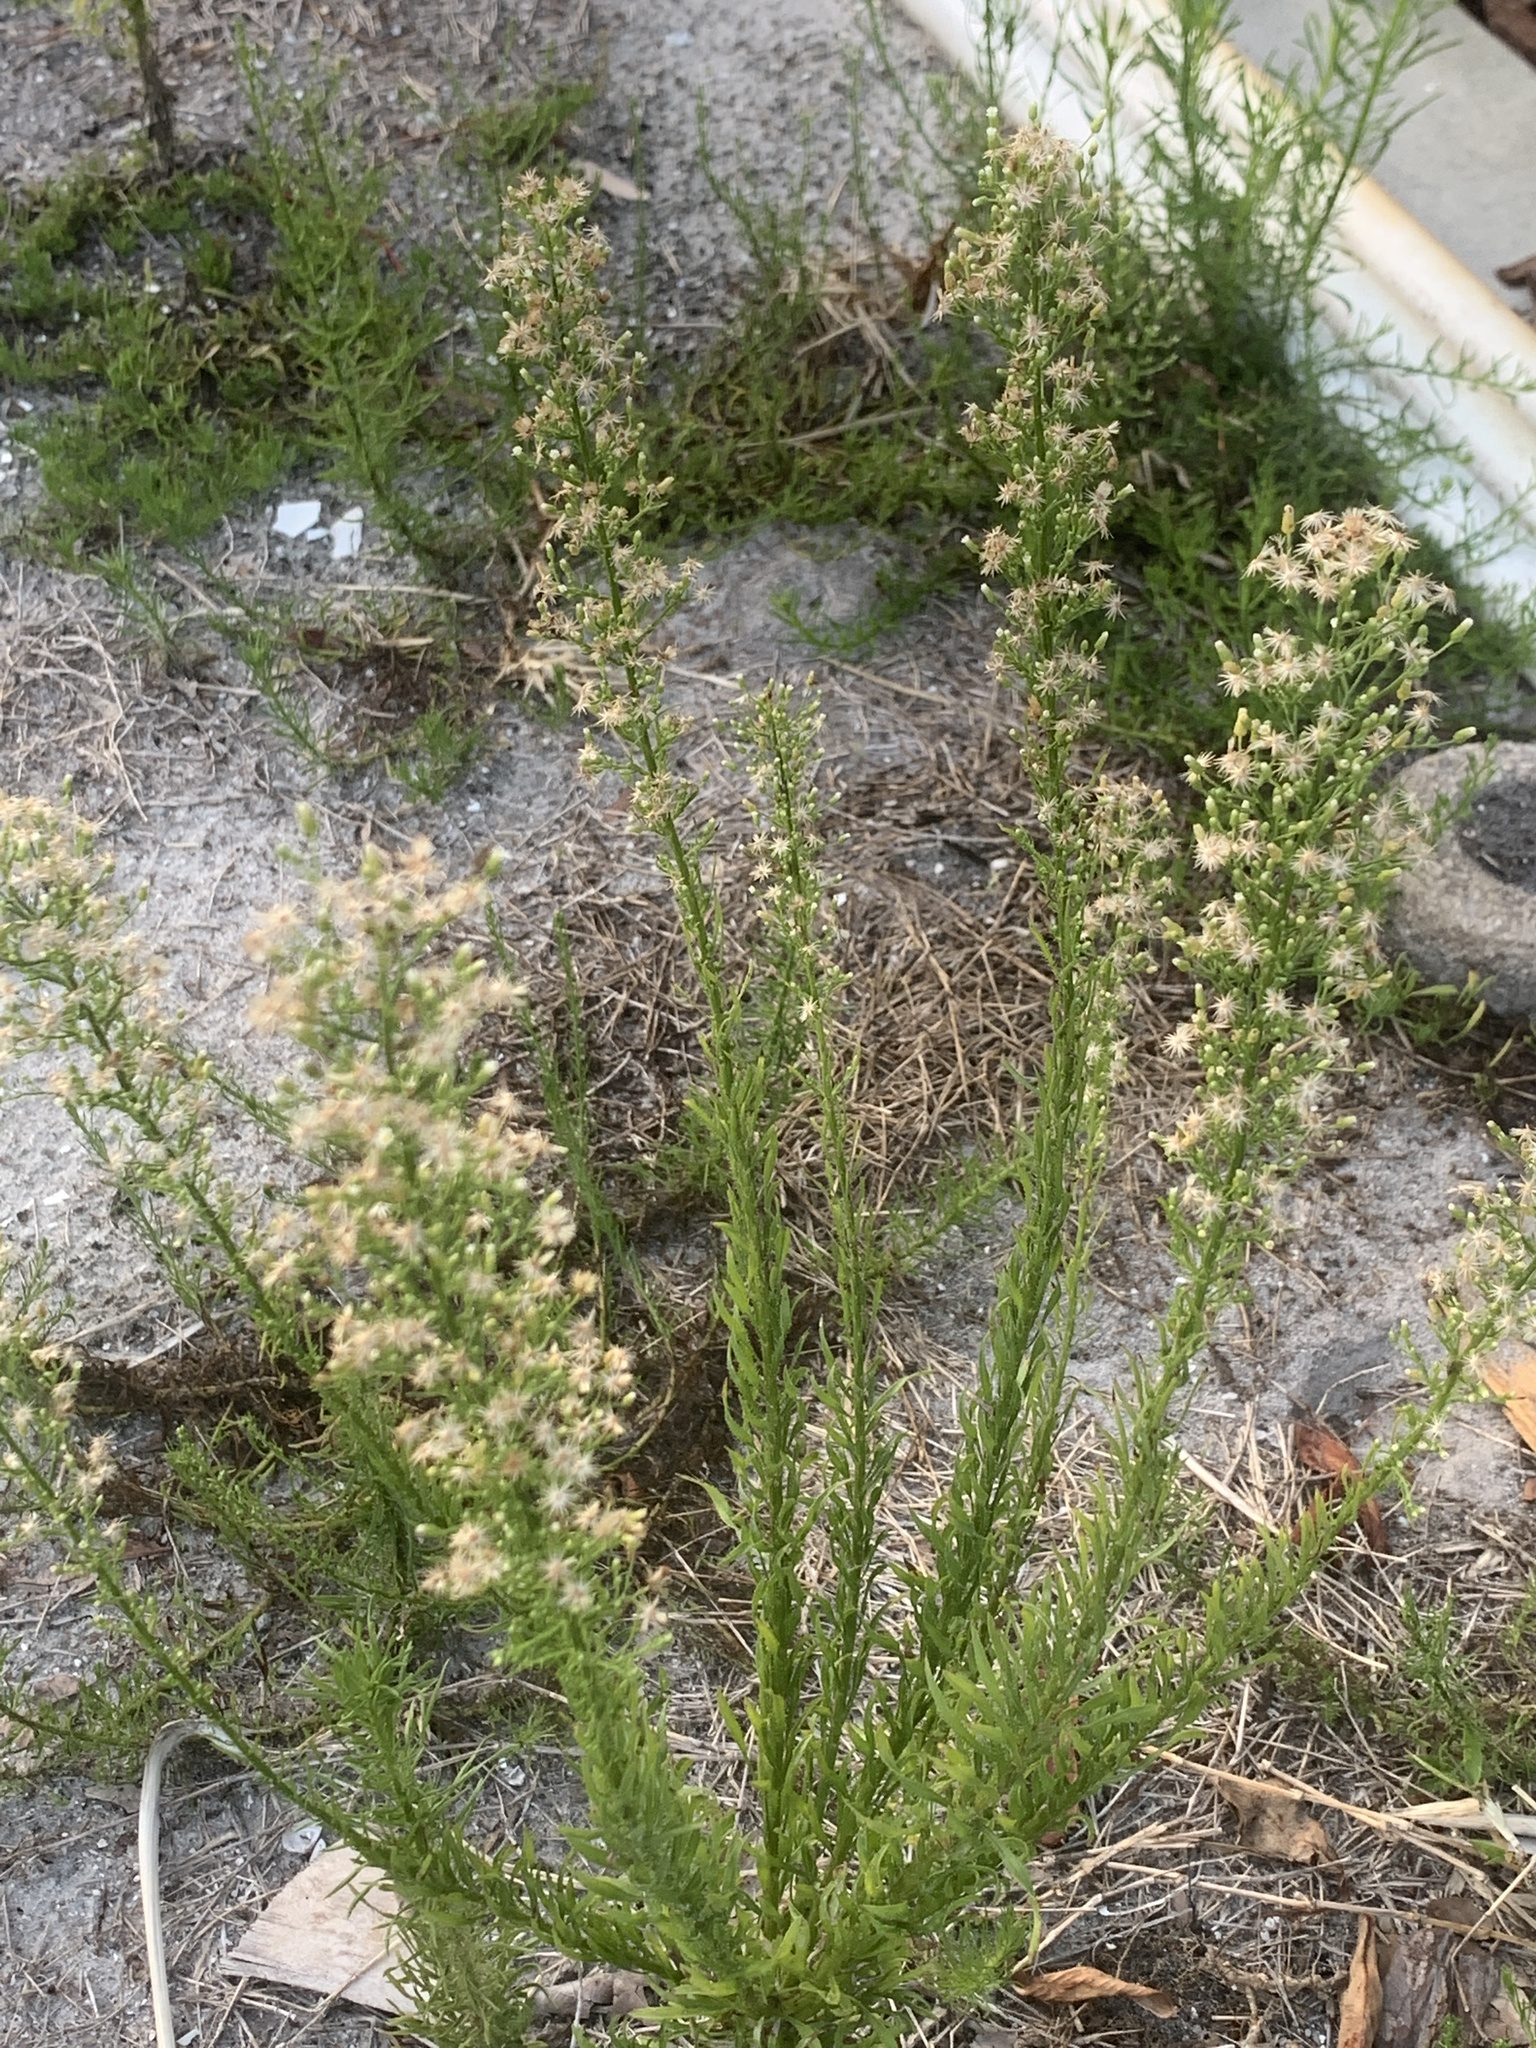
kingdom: Plantae
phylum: Tracheophyta
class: Magnoliopsida
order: Asterales
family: Asteraceae
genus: Erigeron
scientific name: Erigeron canadensis
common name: Canadian fleabane
